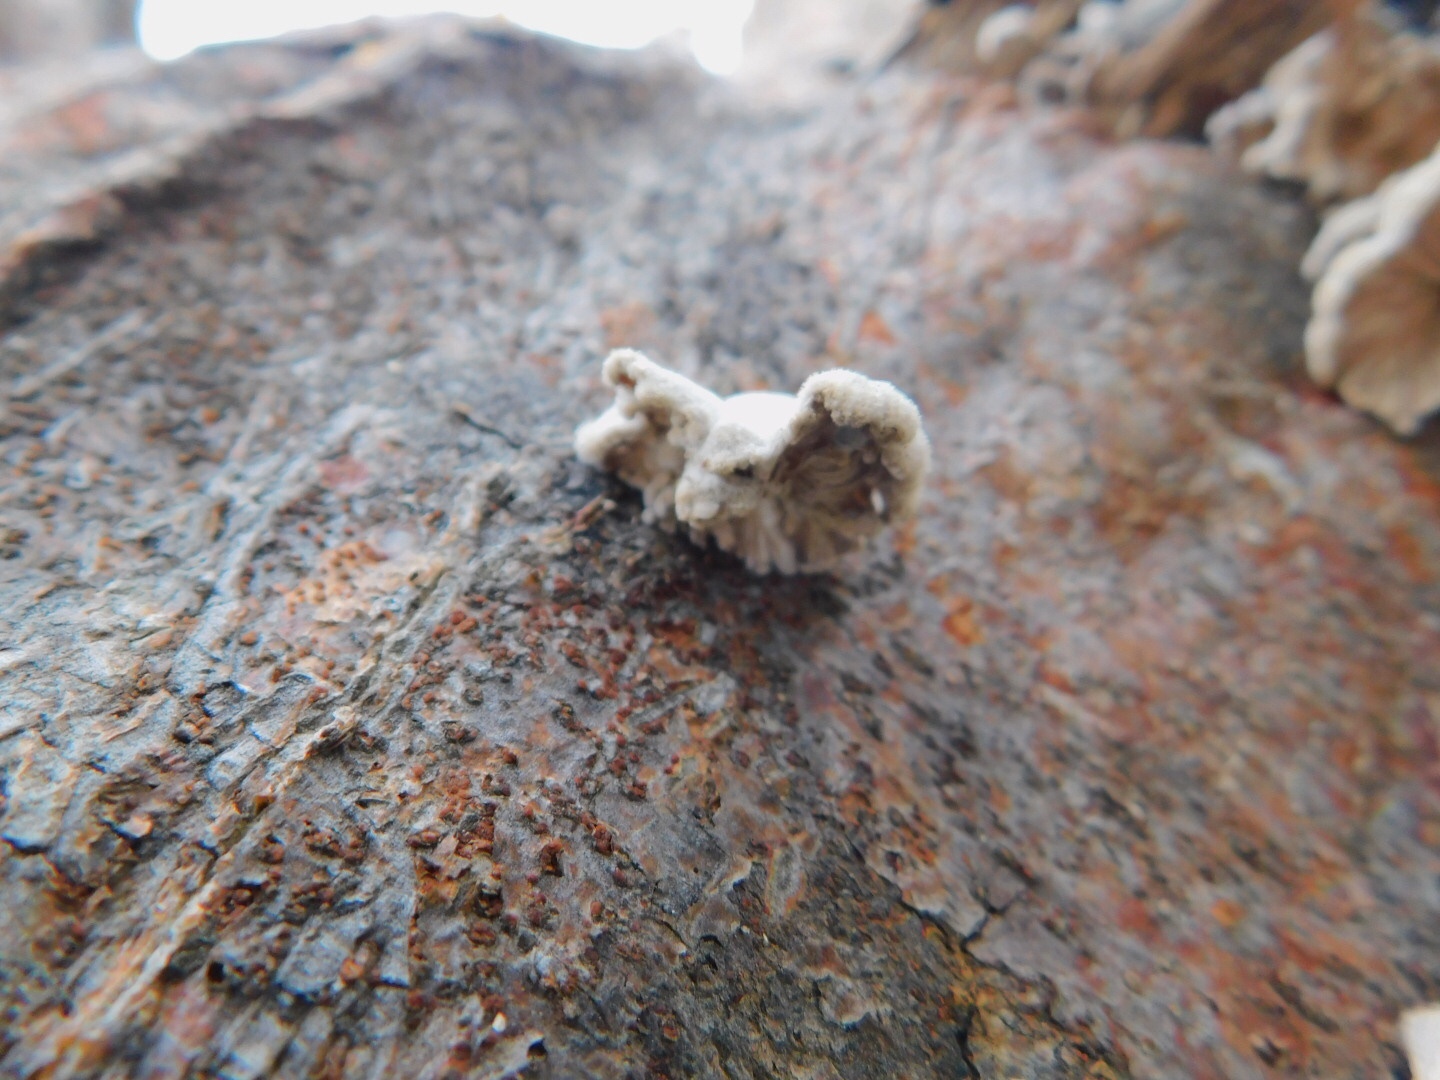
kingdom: Fungi
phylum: Basidiomycota
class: Agaricomycetes
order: Agaricales
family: Schizophyllaceae
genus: Schizophyllum
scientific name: Schizophyllum commune
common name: Common porecrust
